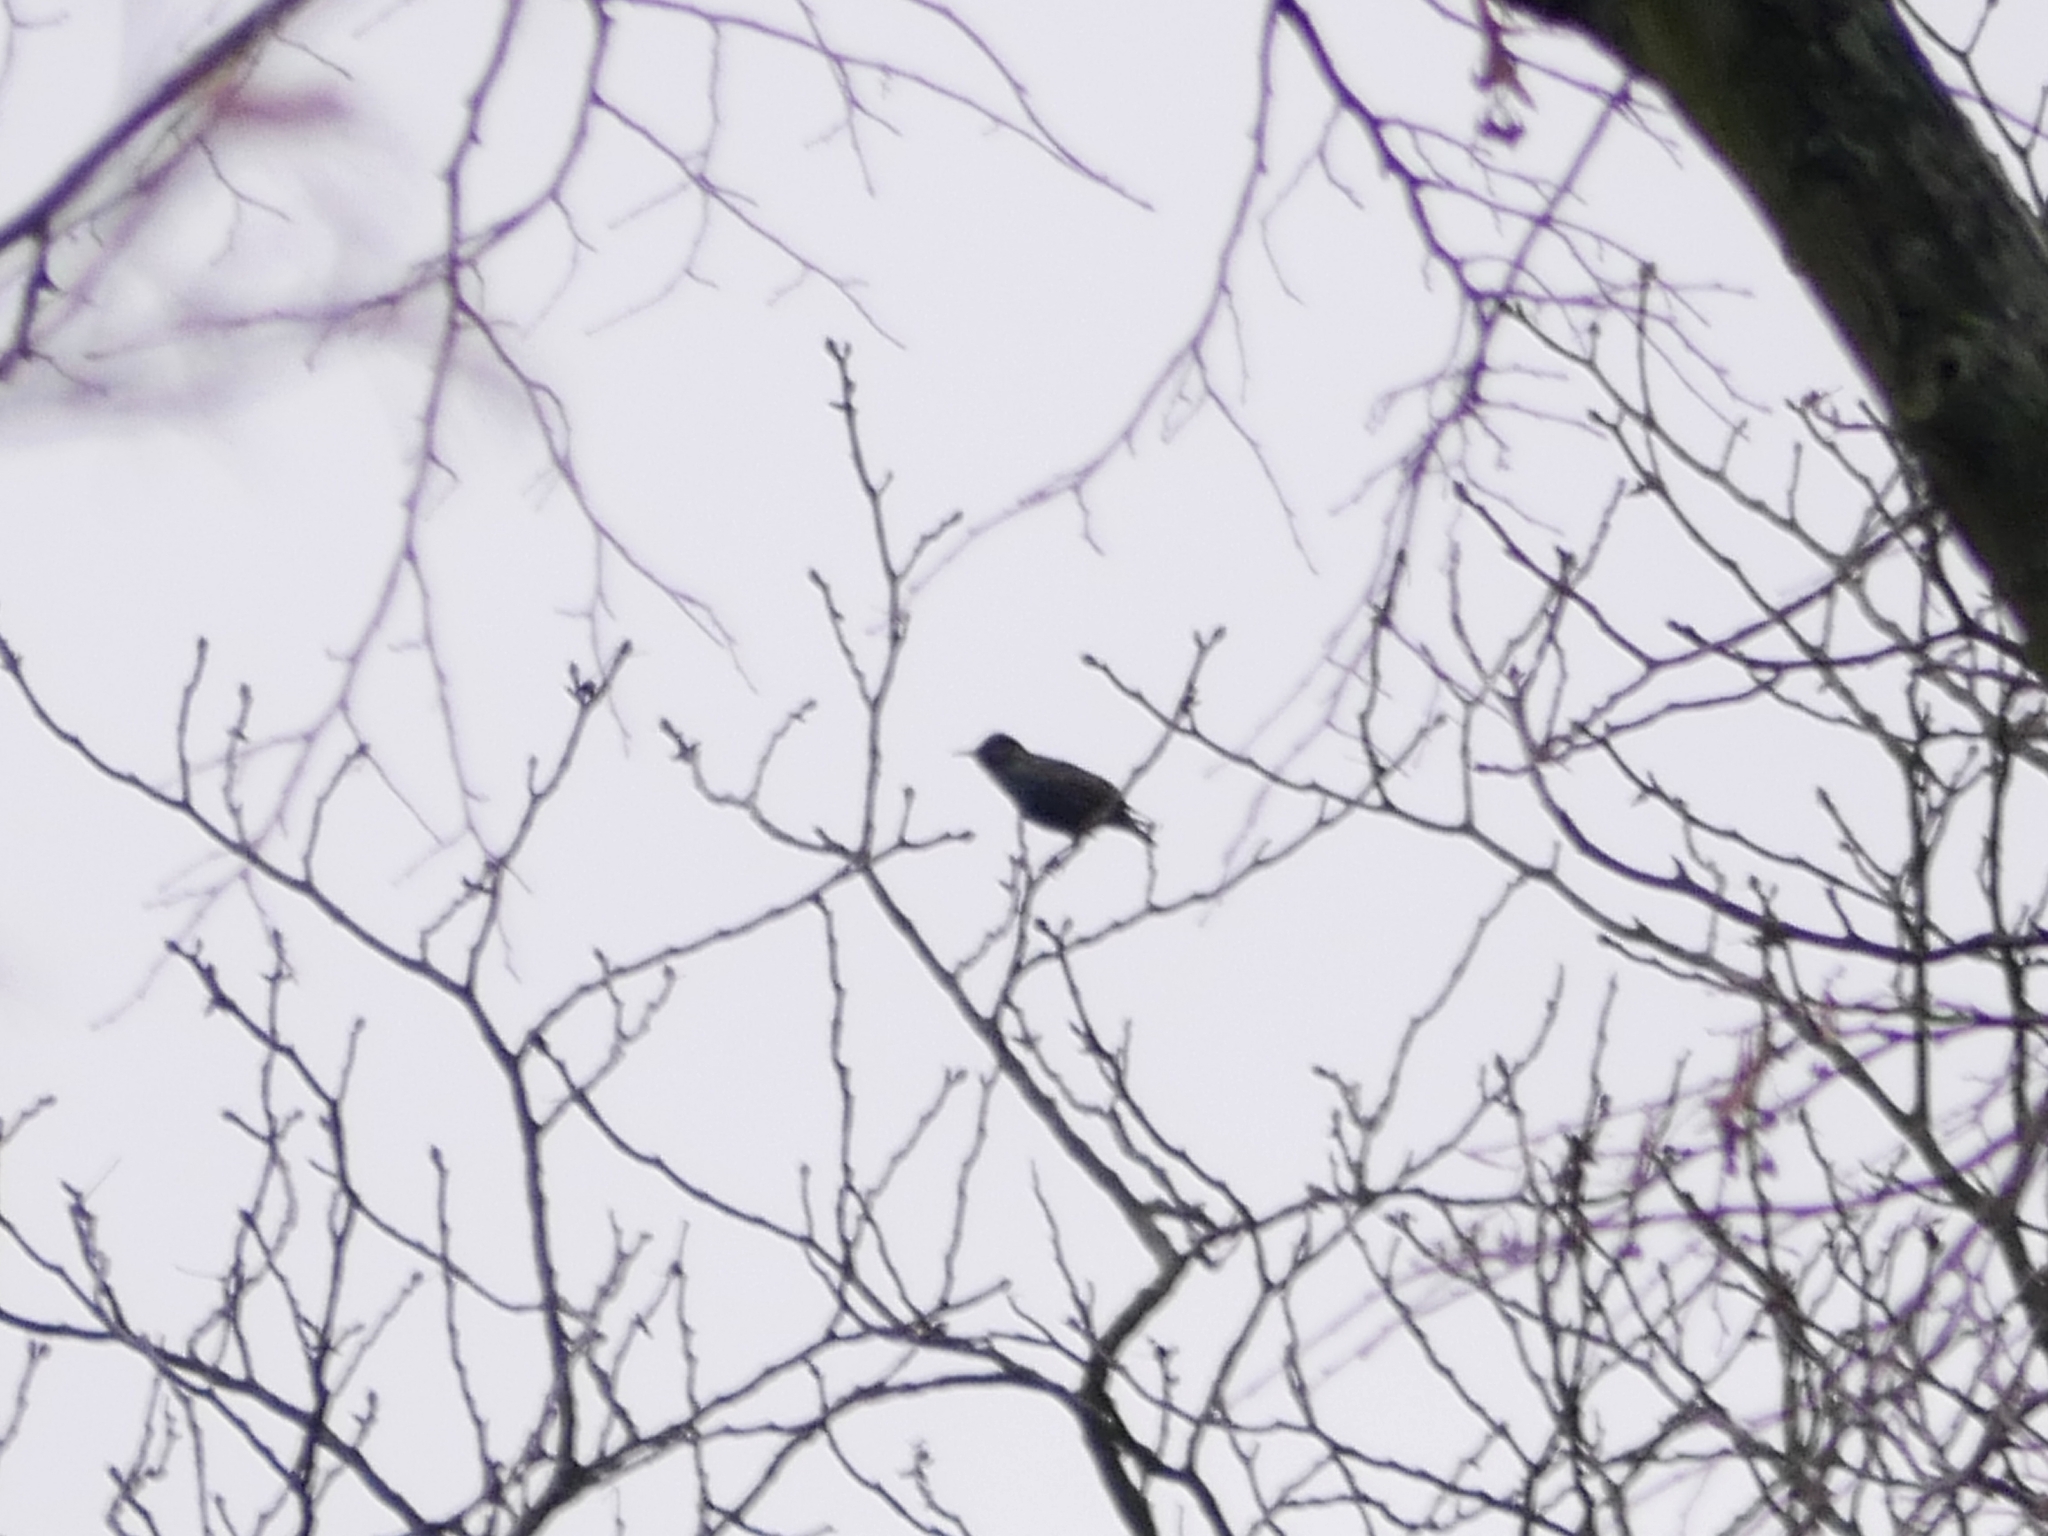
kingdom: Animalia
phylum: Chordata
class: Aves
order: Passeriformes
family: Sturnidae
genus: Sturnus
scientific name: Sturnus vulgaris
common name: Common starling
